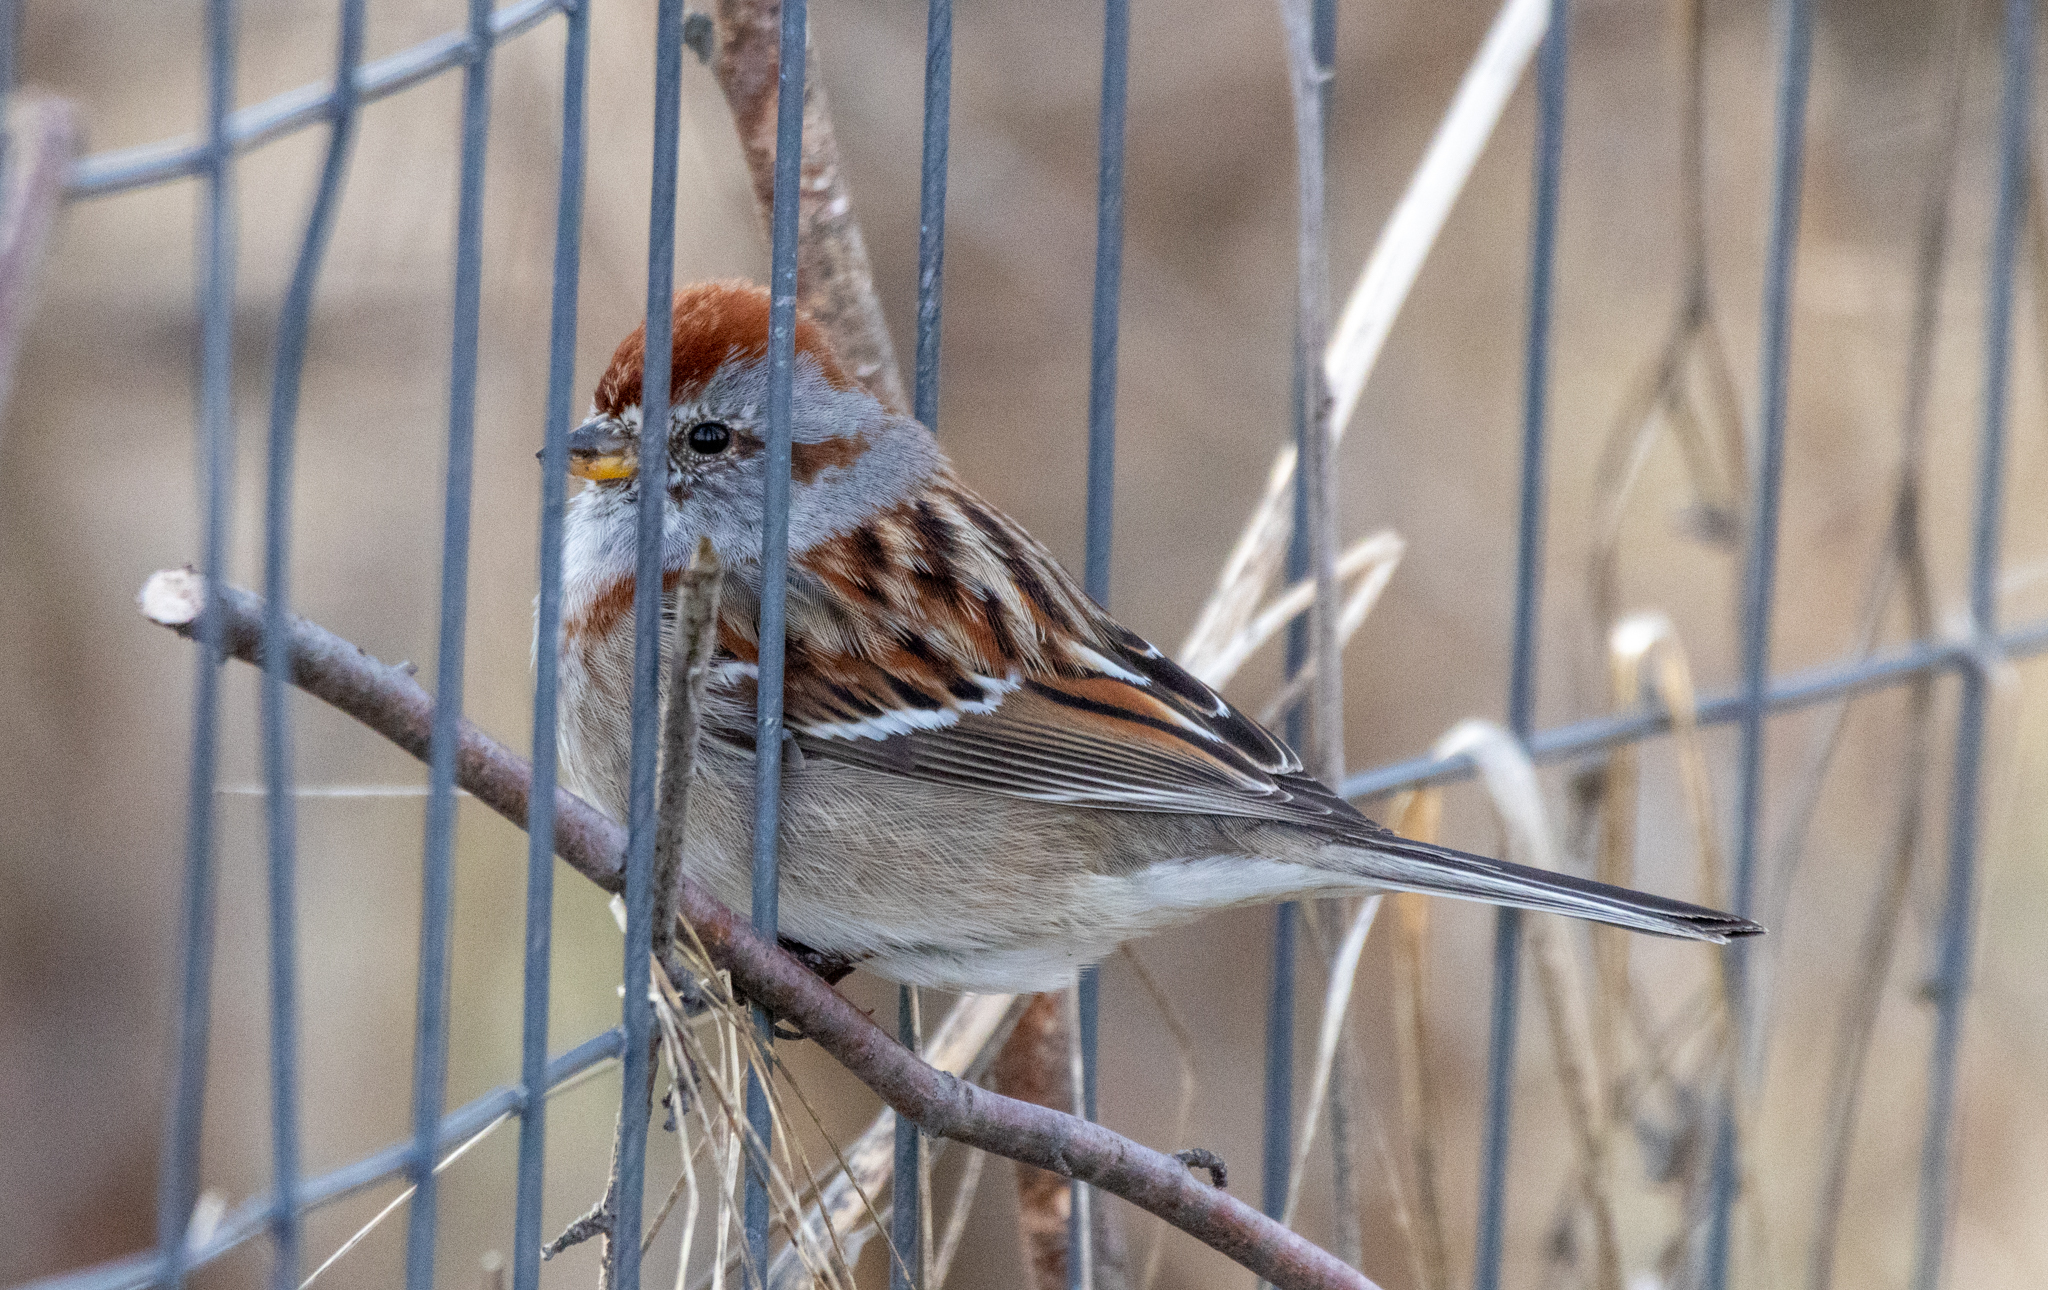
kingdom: Animalia
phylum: Chordata
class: Aves
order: Passeriformes
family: Passerellidae
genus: Spizelloides
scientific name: Spizelloides arborea
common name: American tree sparrow
